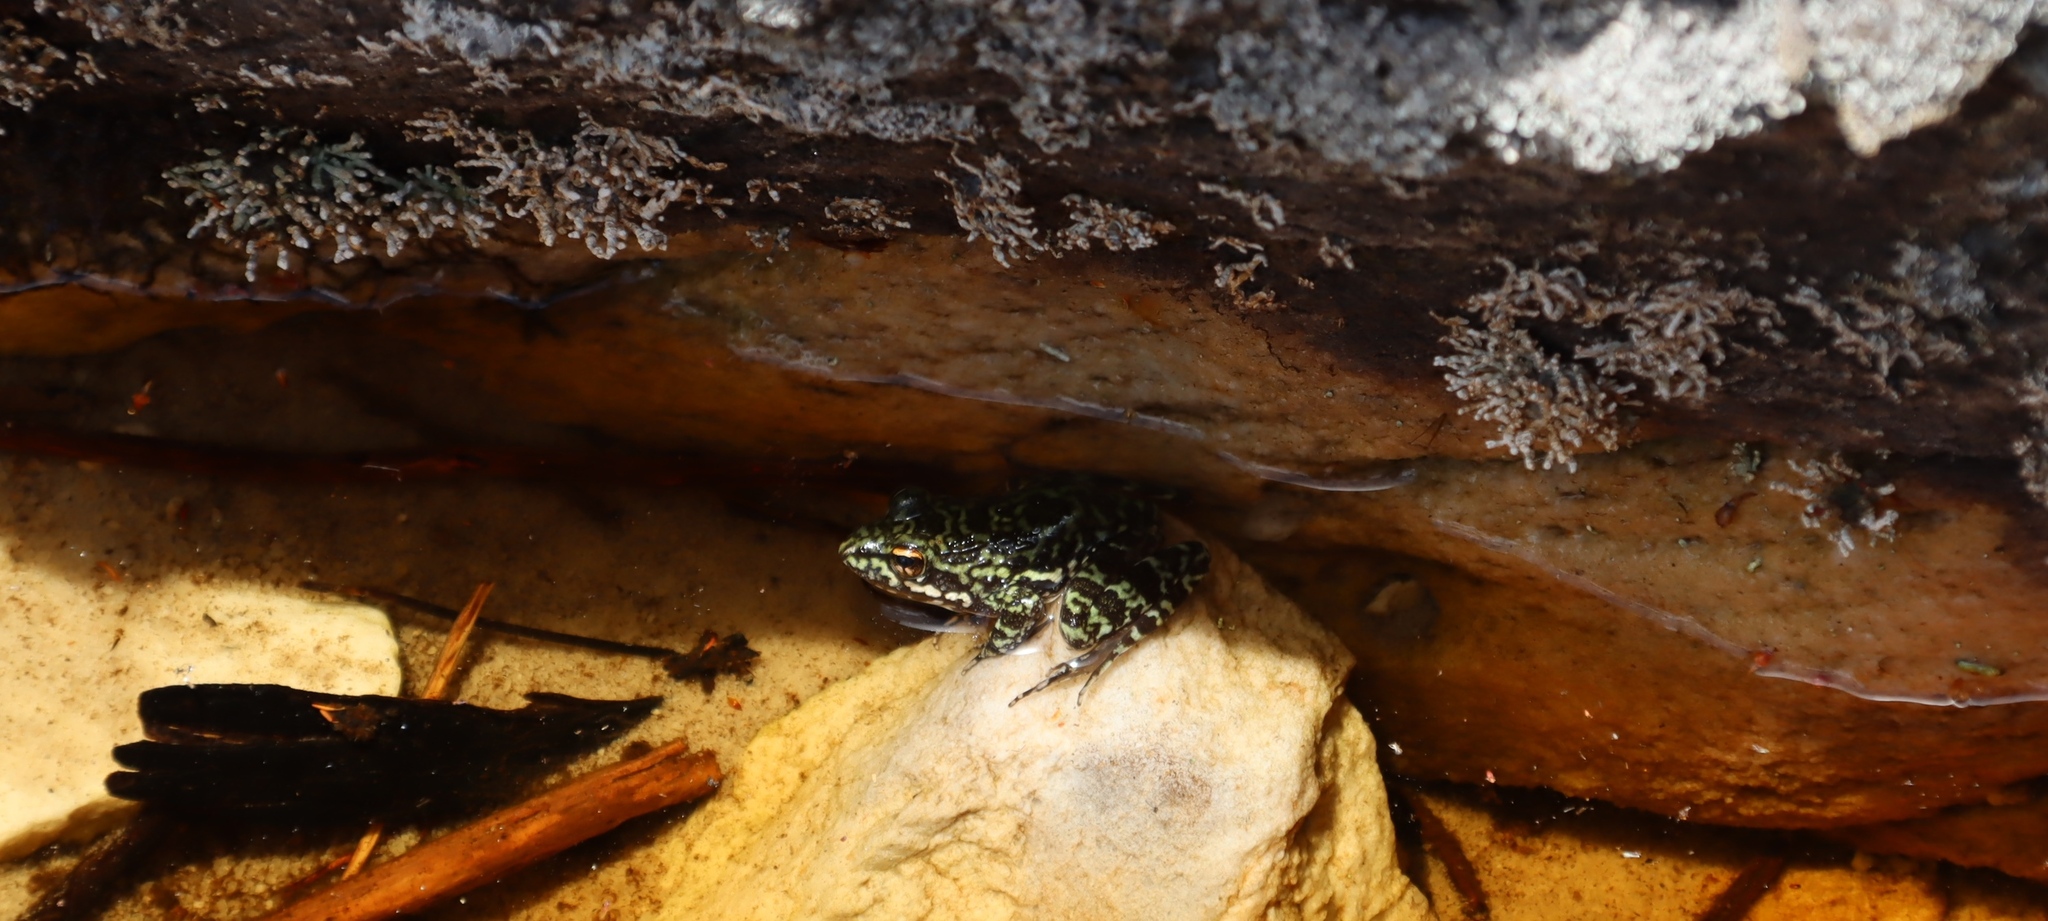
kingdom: Animalia
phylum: Chordata
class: Amphibia
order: Anura
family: Pyxicephalidae
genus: Amietia
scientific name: Amietia fuscigula
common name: Cape rana
